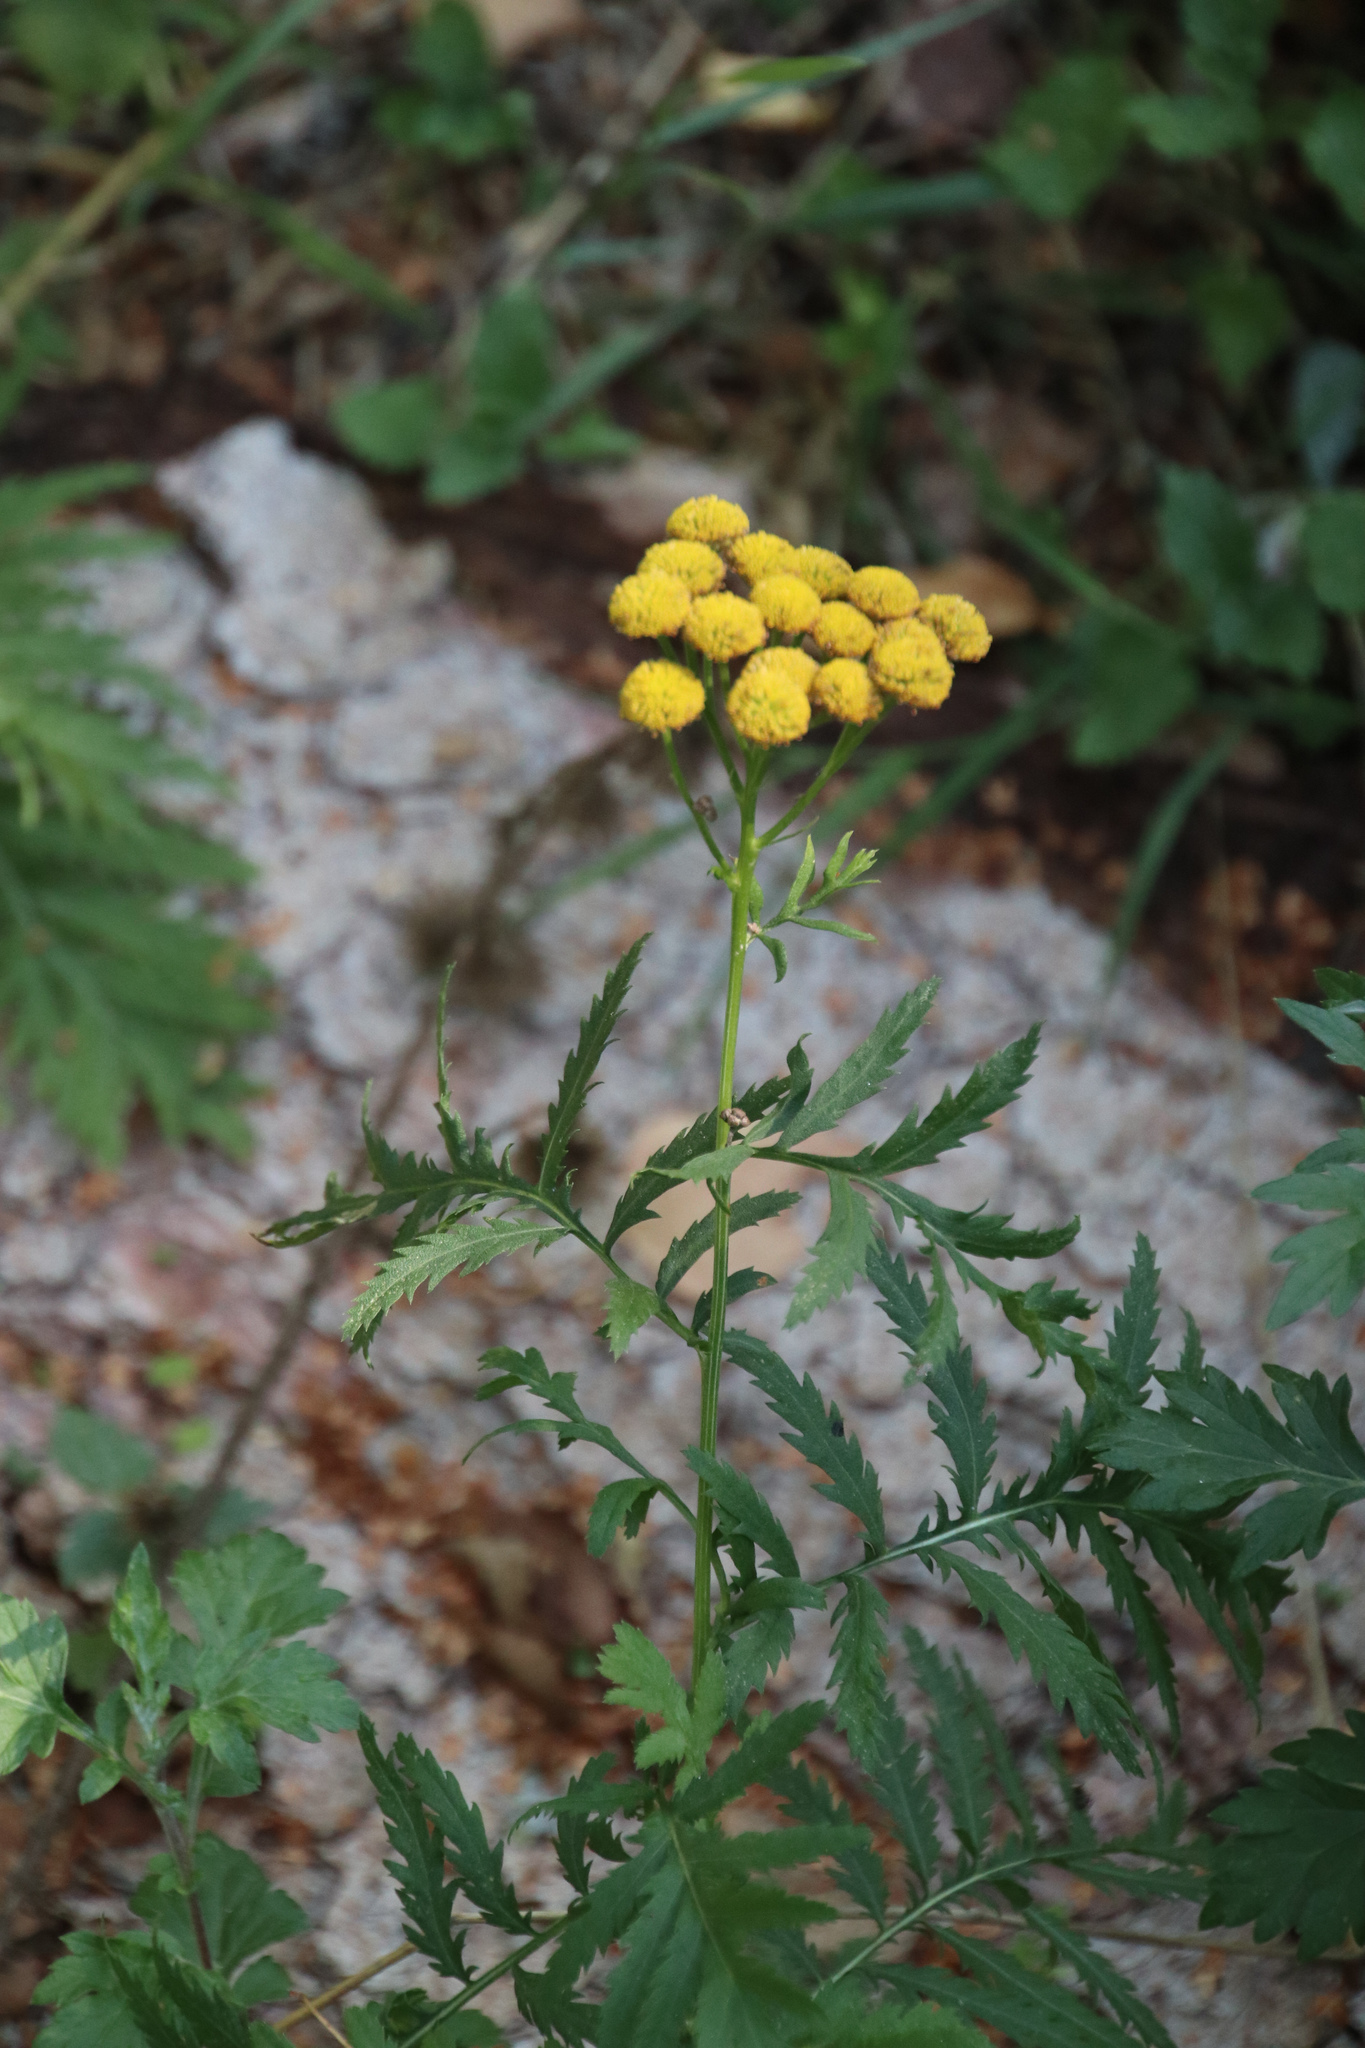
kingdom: Plantae
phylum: Tracheophyta
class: Magnoliopsida
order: Asterales
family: Asteraceae
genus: Tanacetum
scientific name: Tanacetum vulgare
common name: Common tansy
